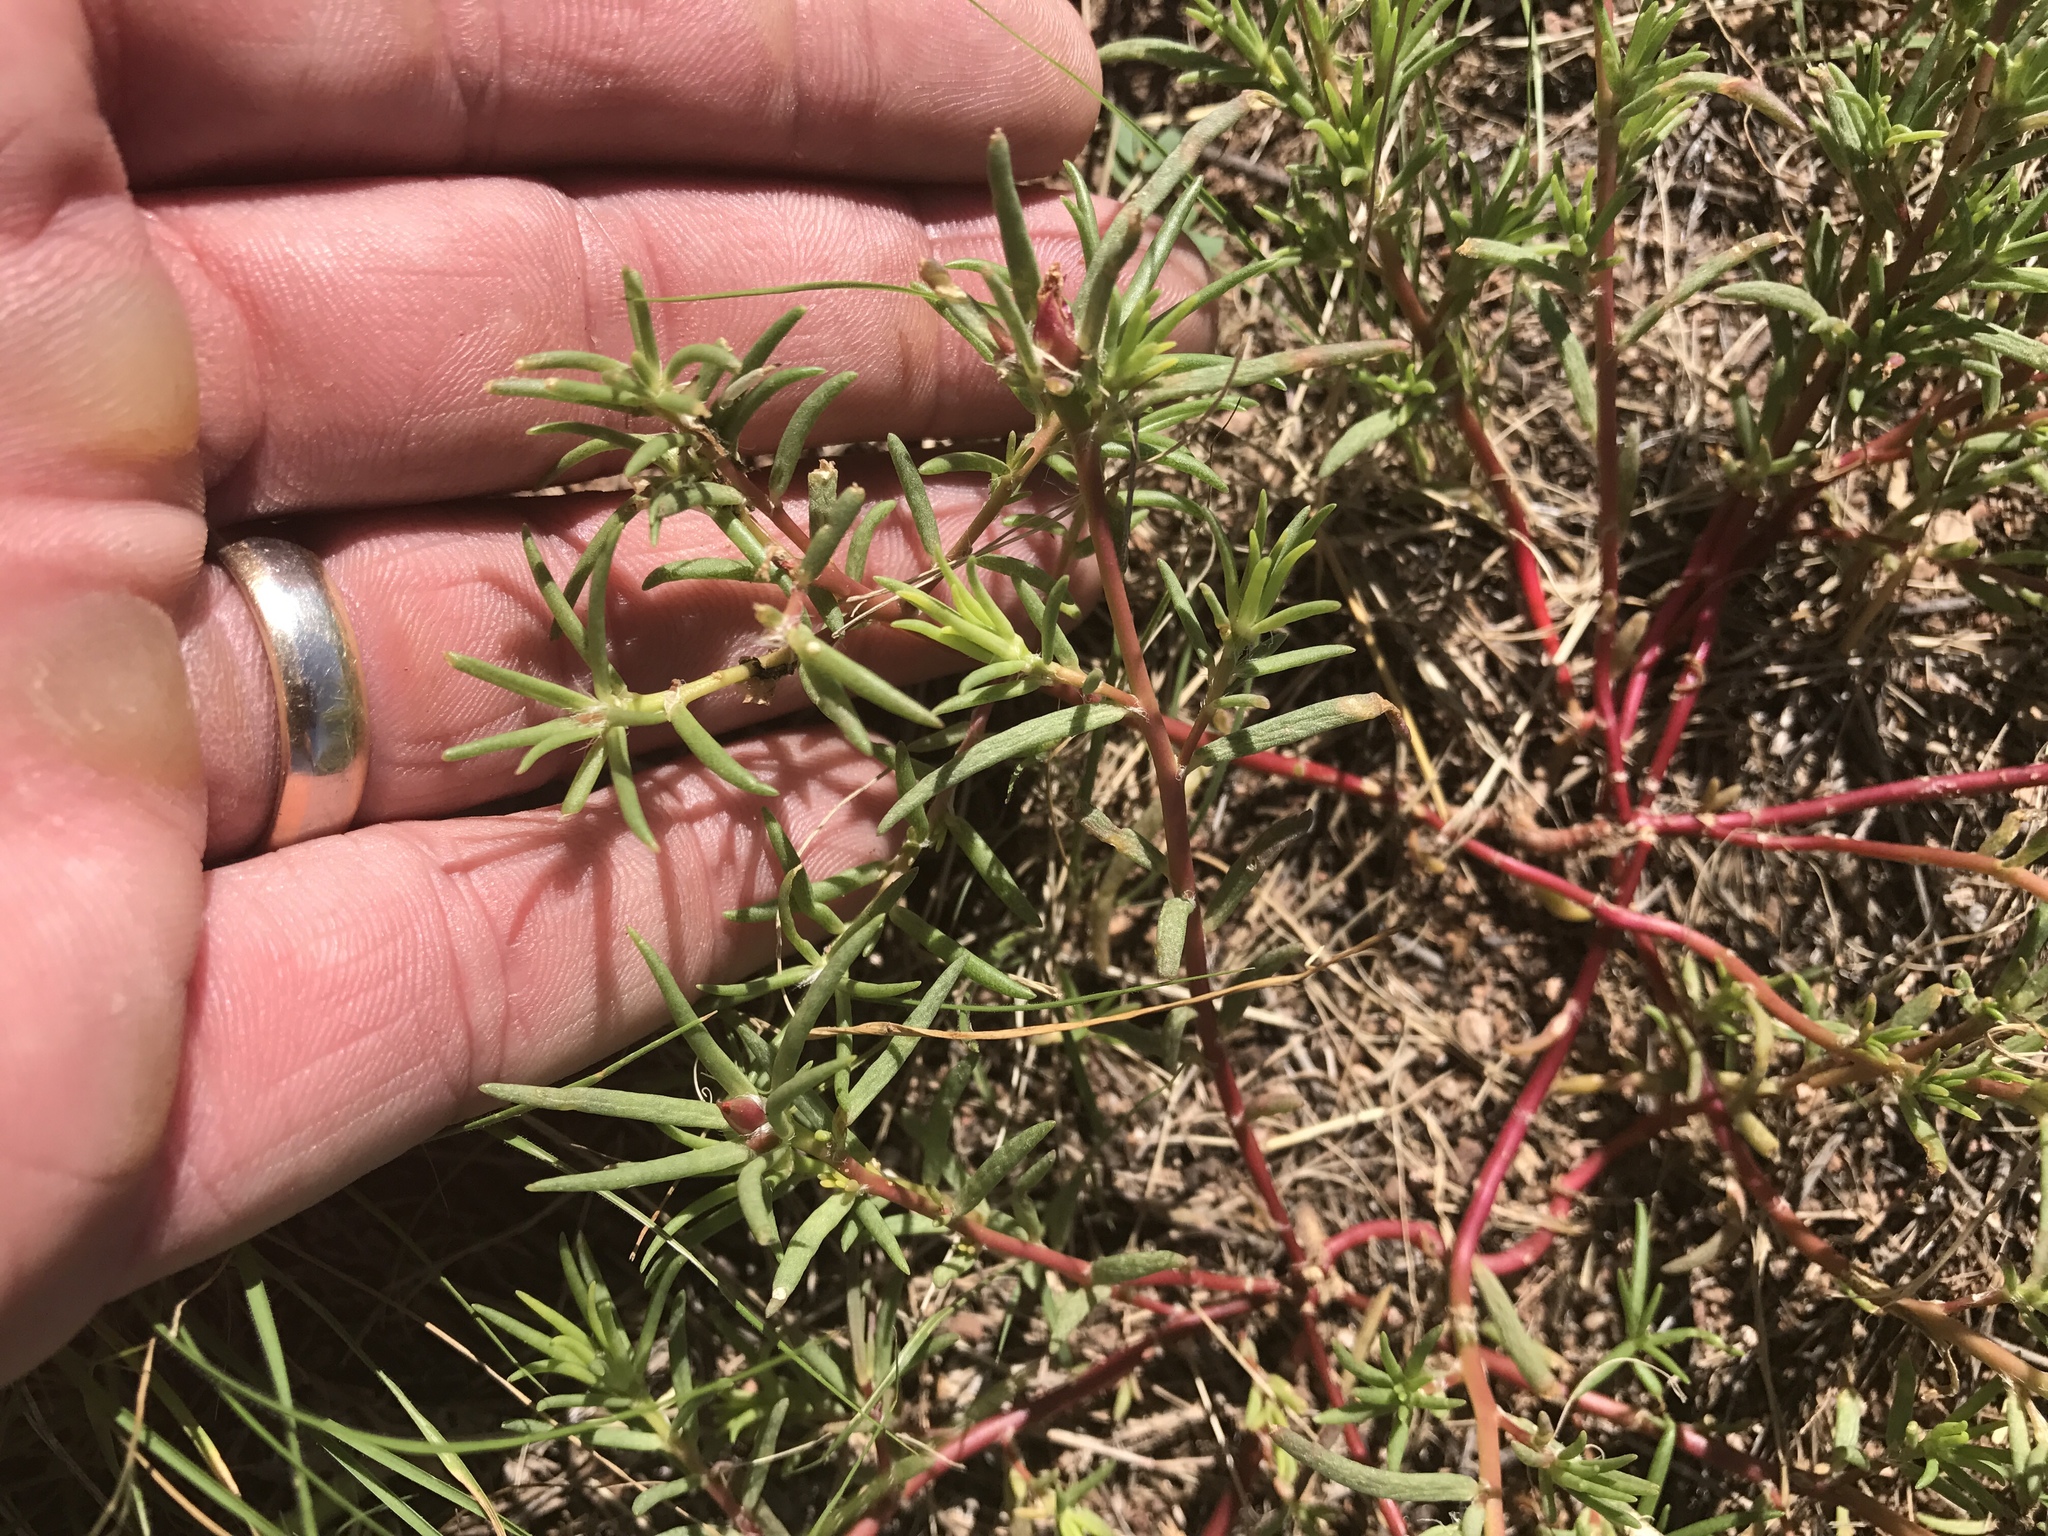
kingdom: Plantae
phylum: Tracheophyta
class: Magnoliopsida
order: Caryophyllales
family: Portulacaceae
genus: Portulaca
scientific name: Portulaca pilosa
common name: Kiss me quick
